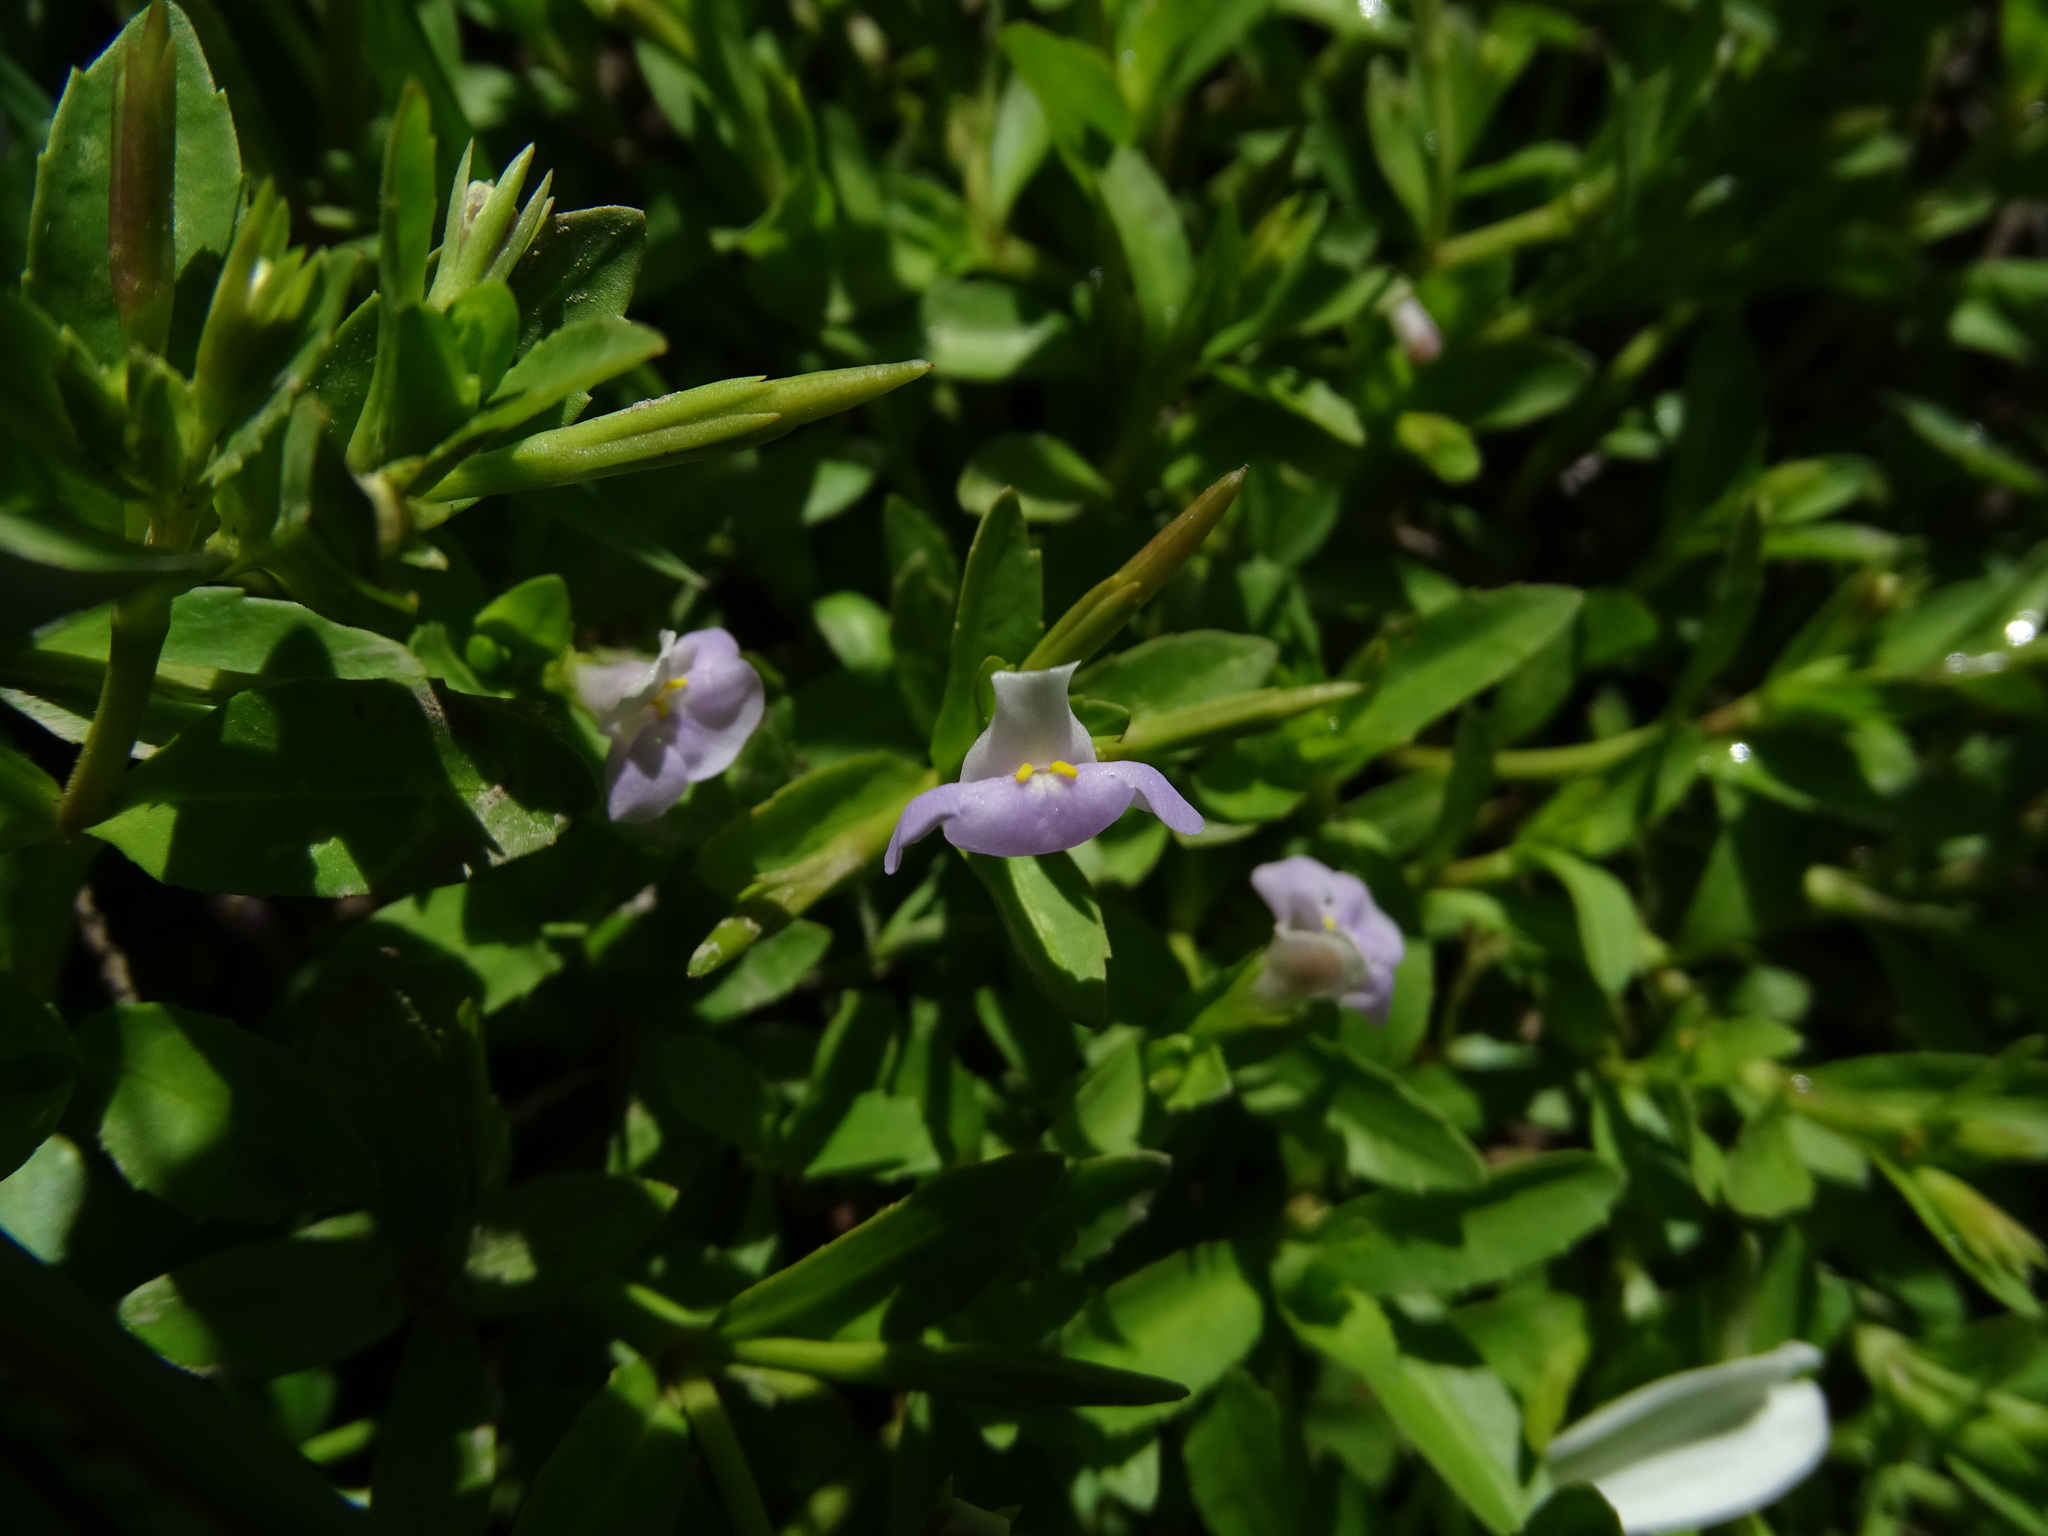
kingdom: Plantae
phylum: Tracheophyta
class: Magnoliopsida
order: Lamiales
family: Linderniaceae
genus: Bonnaya
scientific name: Bonnaya antipoda
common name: Sparrow false pimpernel
